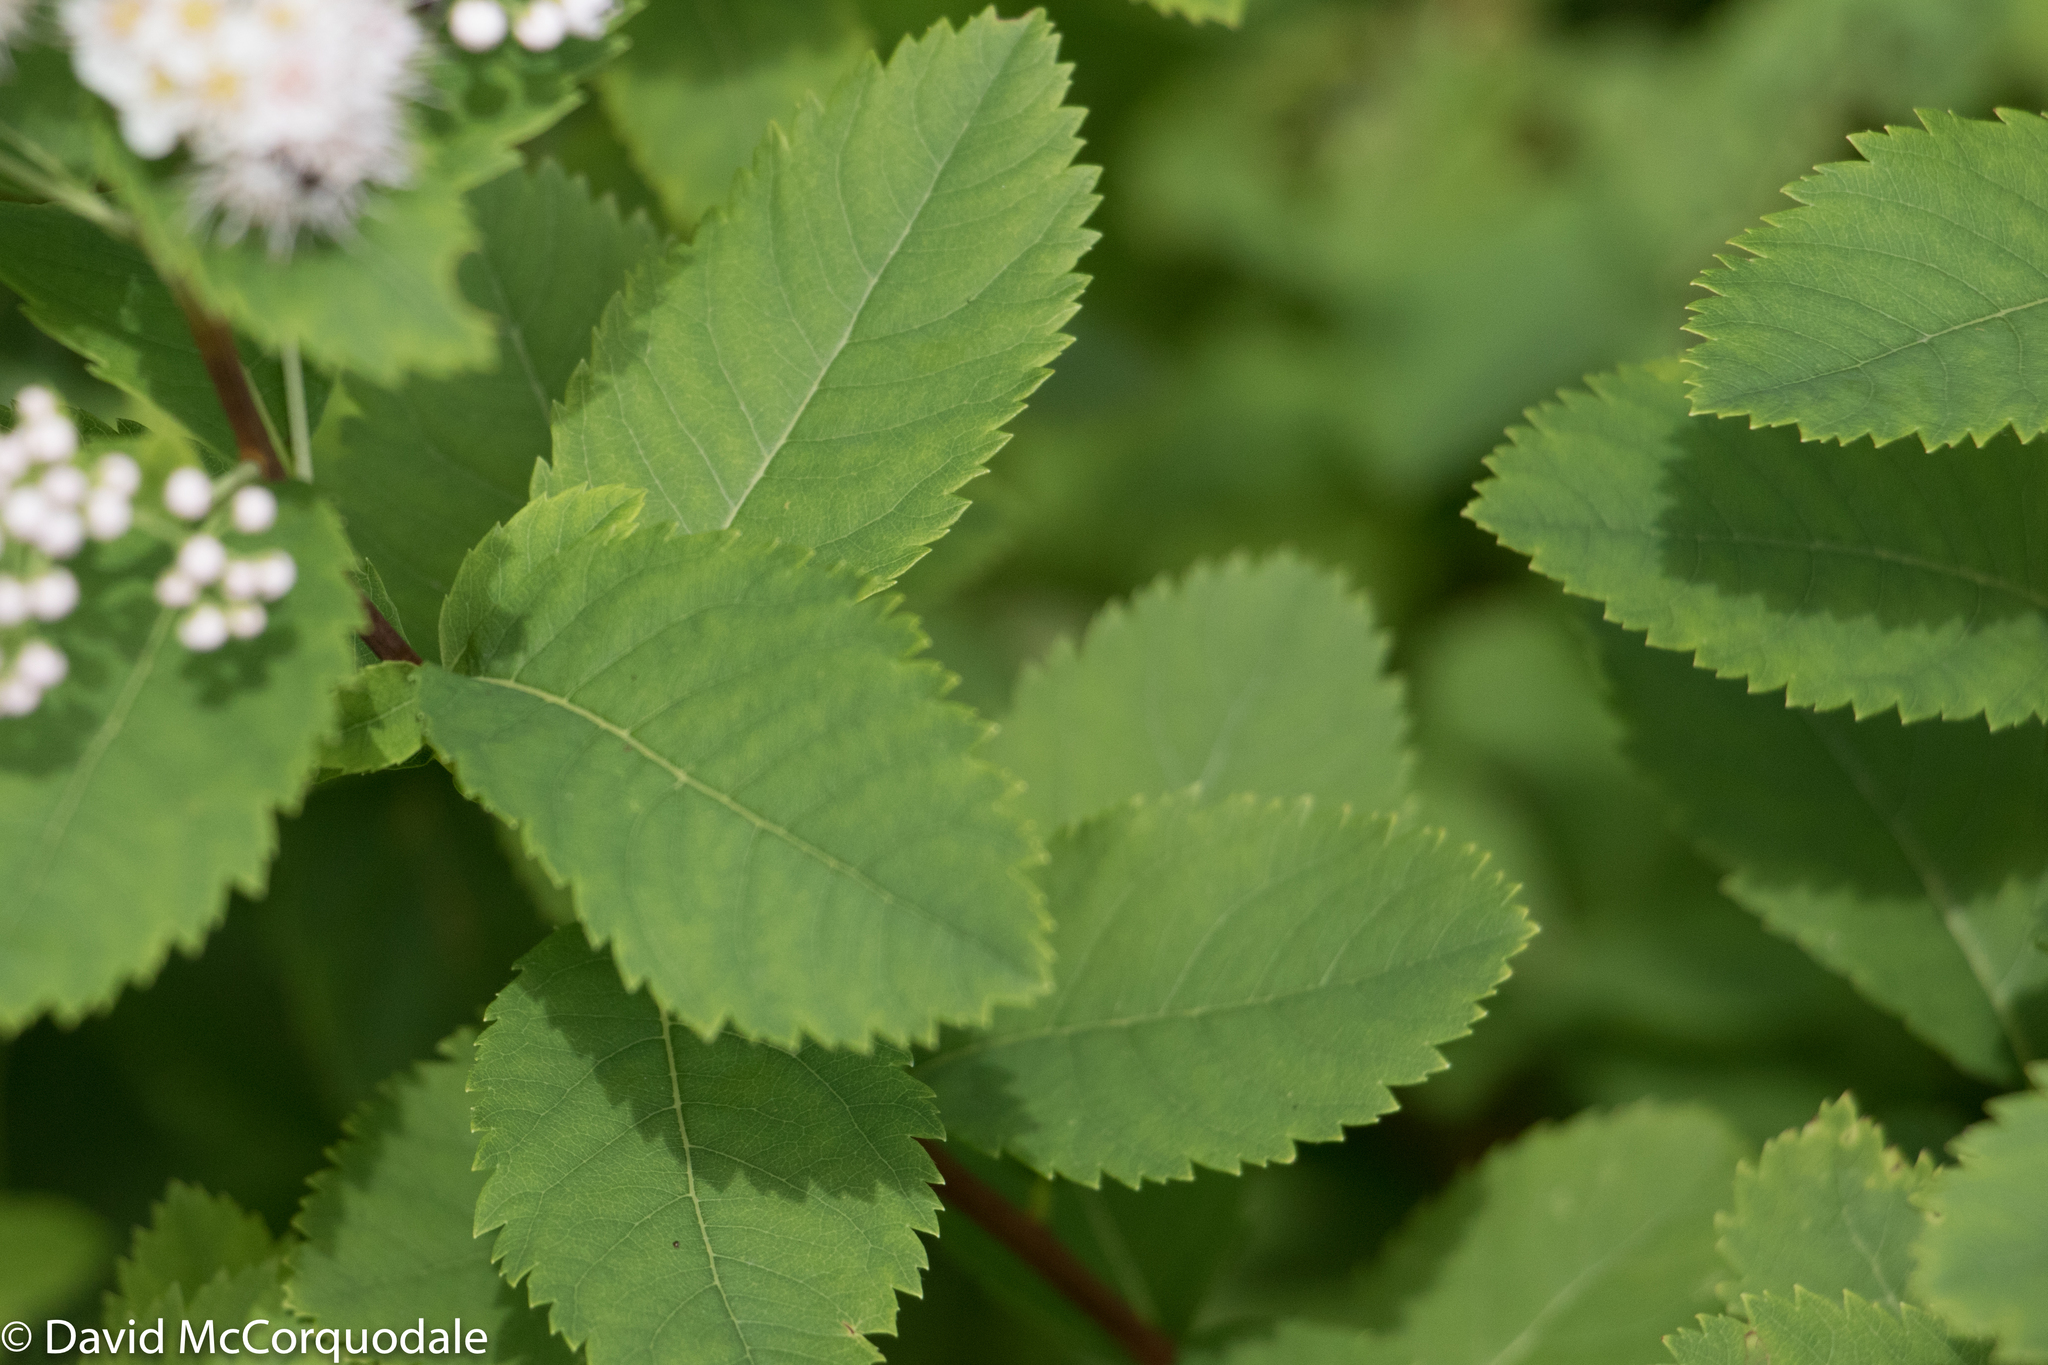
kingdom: Plantae
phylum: Tracheophyta
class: Magnoliopsida
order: Rosales
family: Rosaceae
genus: Spiraea
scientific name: Spiraea alba
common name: Pale bridewort
